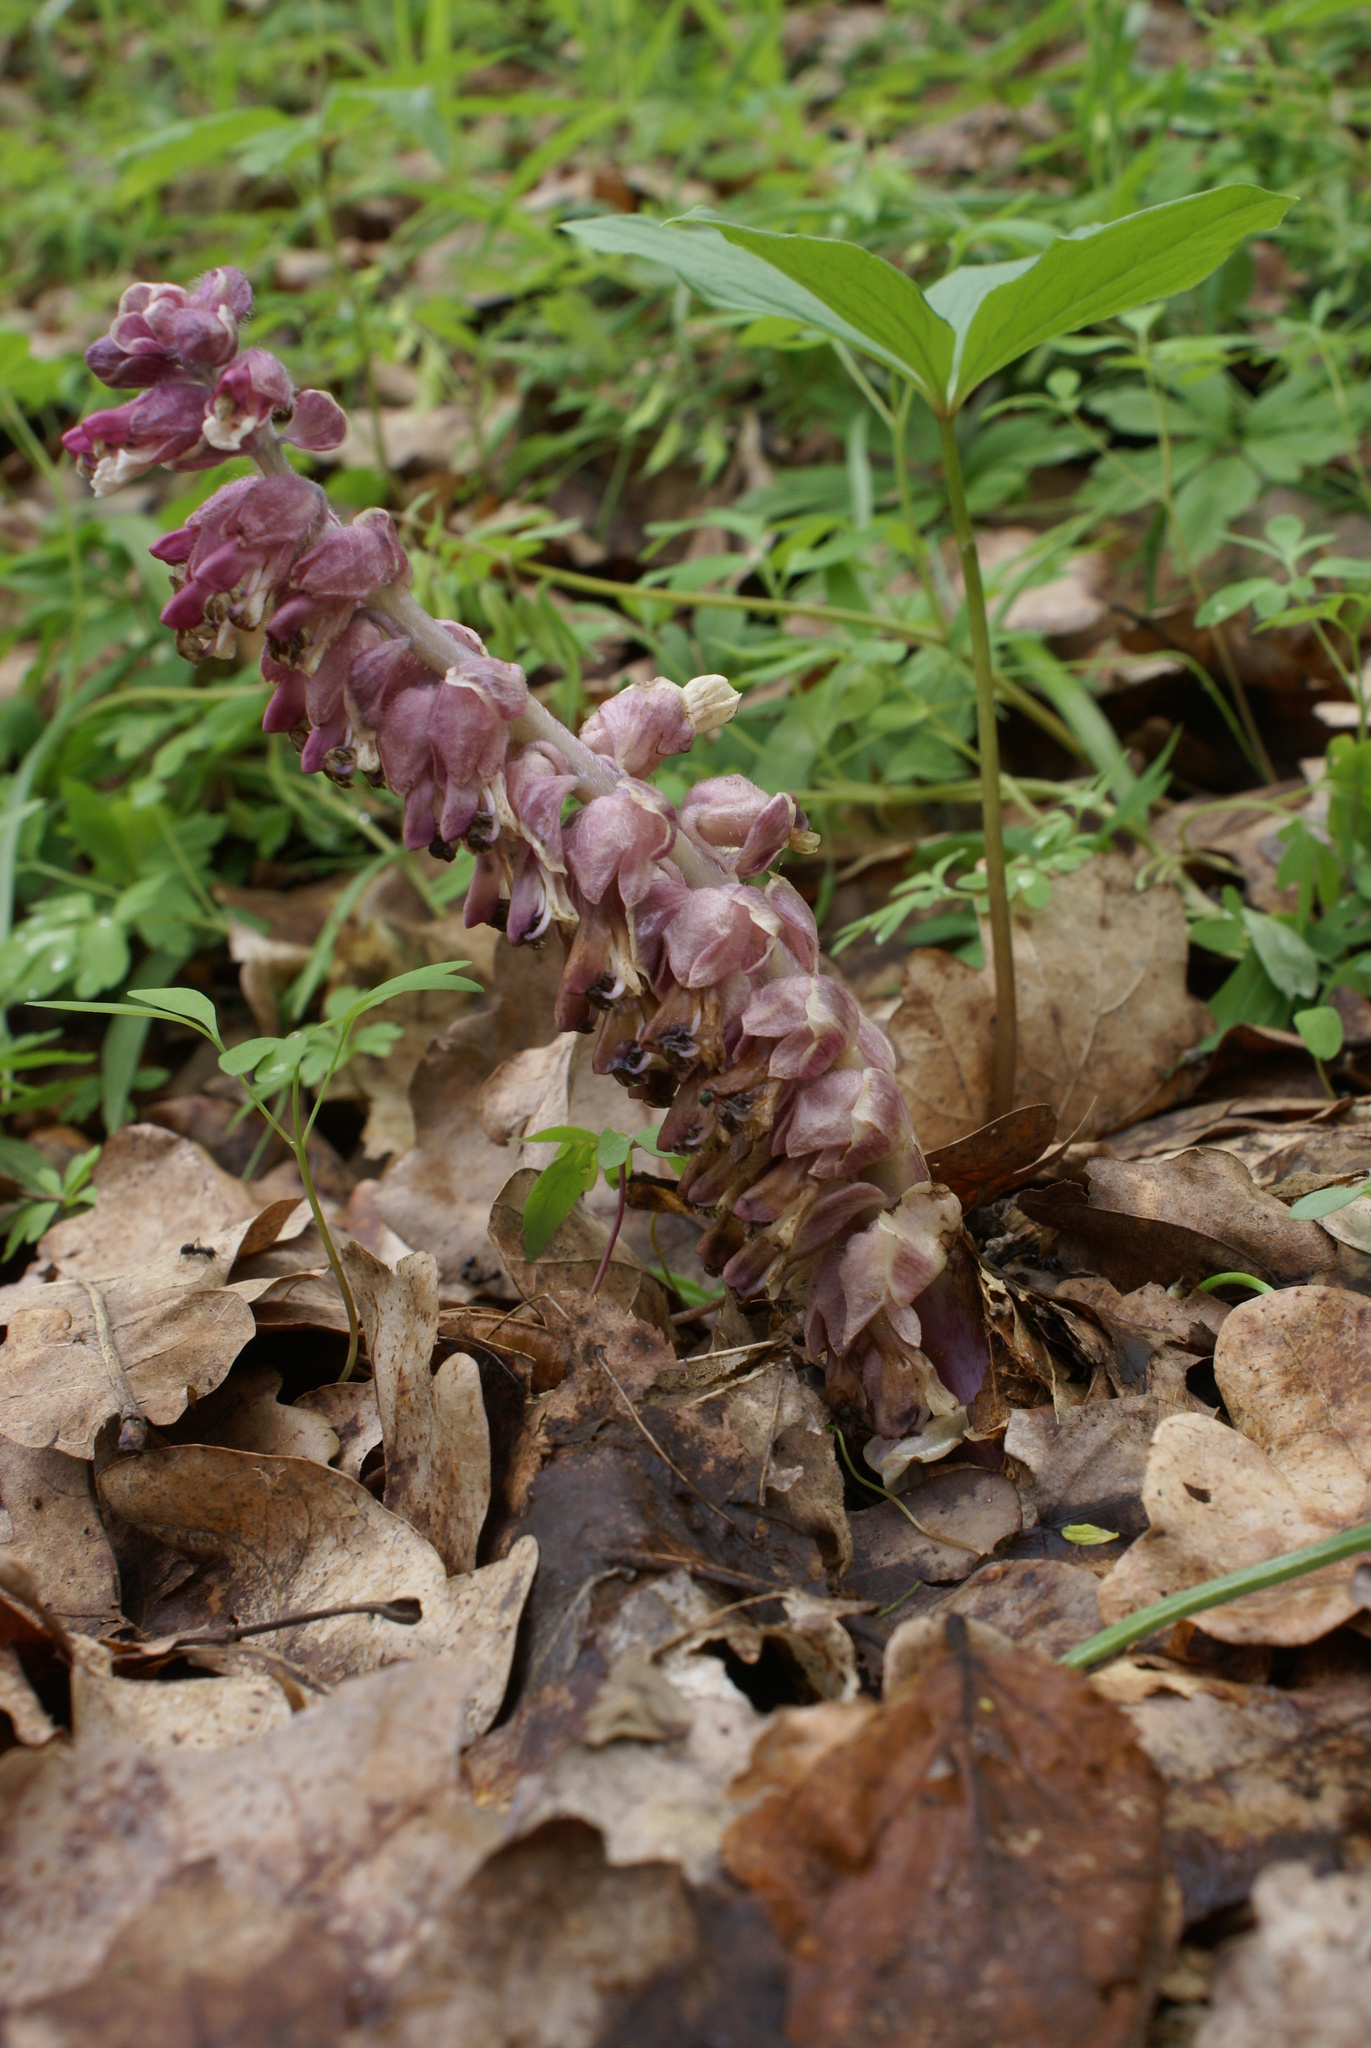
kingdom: Plantae
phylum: Tracheophyta
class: Magnoliopsida
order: Lamiales
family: Orobanchaceae
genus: Lathraea
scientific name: Lathraea squamaria
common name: Toothwort
